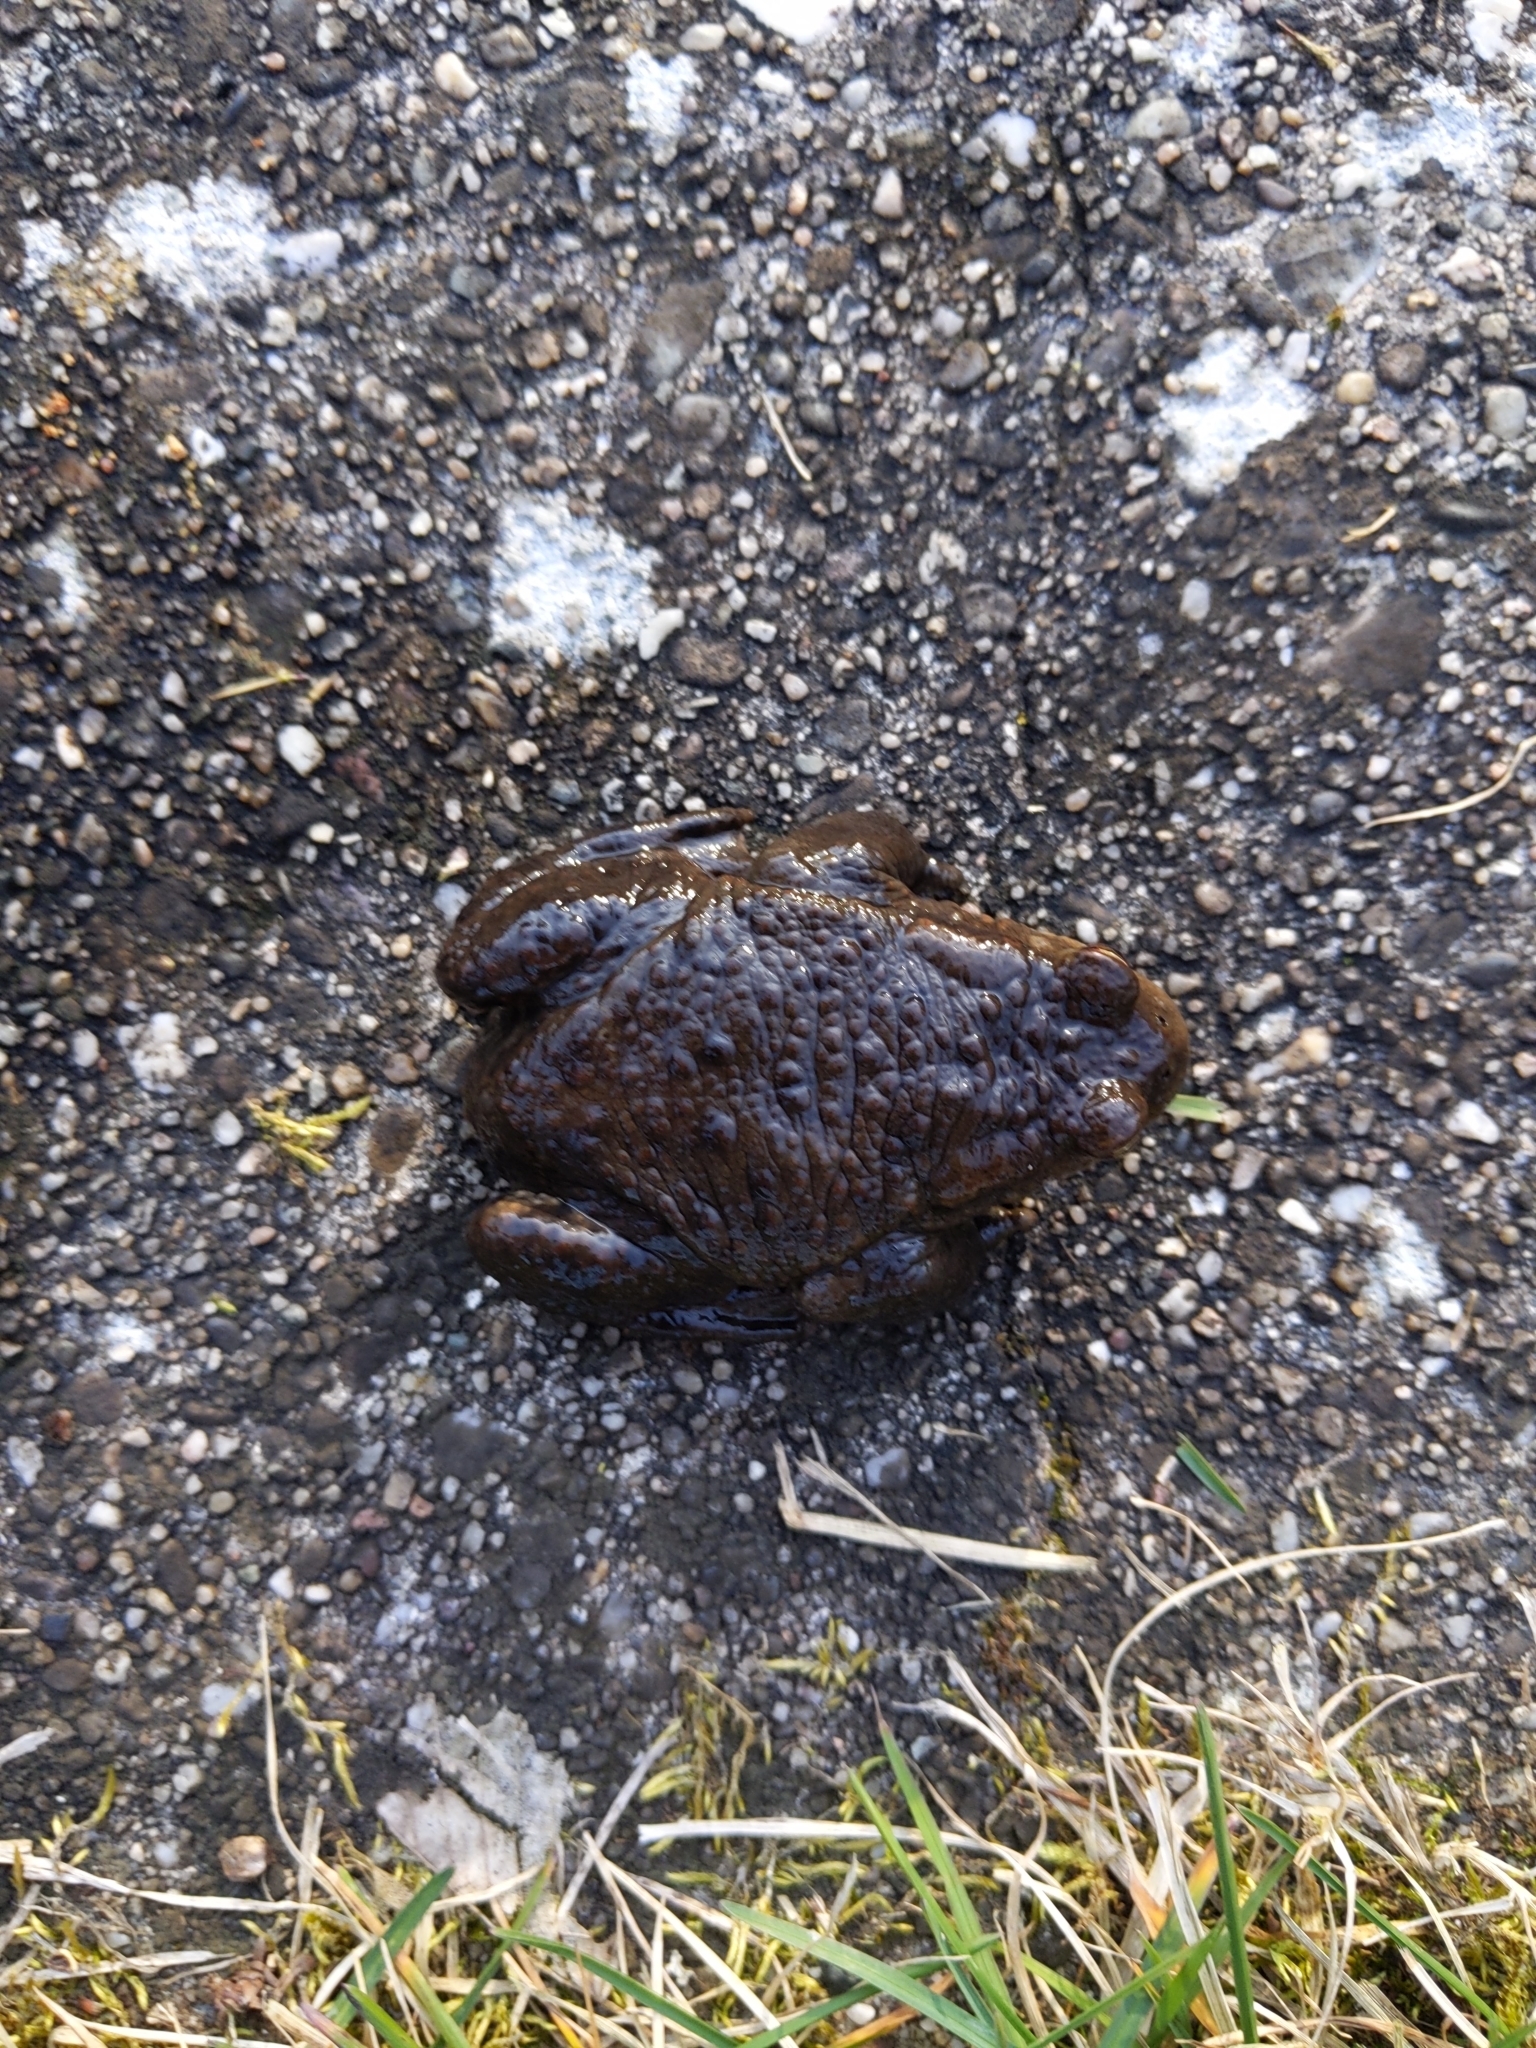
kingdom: Animalia
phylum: Chordata
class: Amphibia
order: Anura
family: Bufonidae
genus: Bufo
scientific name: Bufo bufo
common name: Common toad
